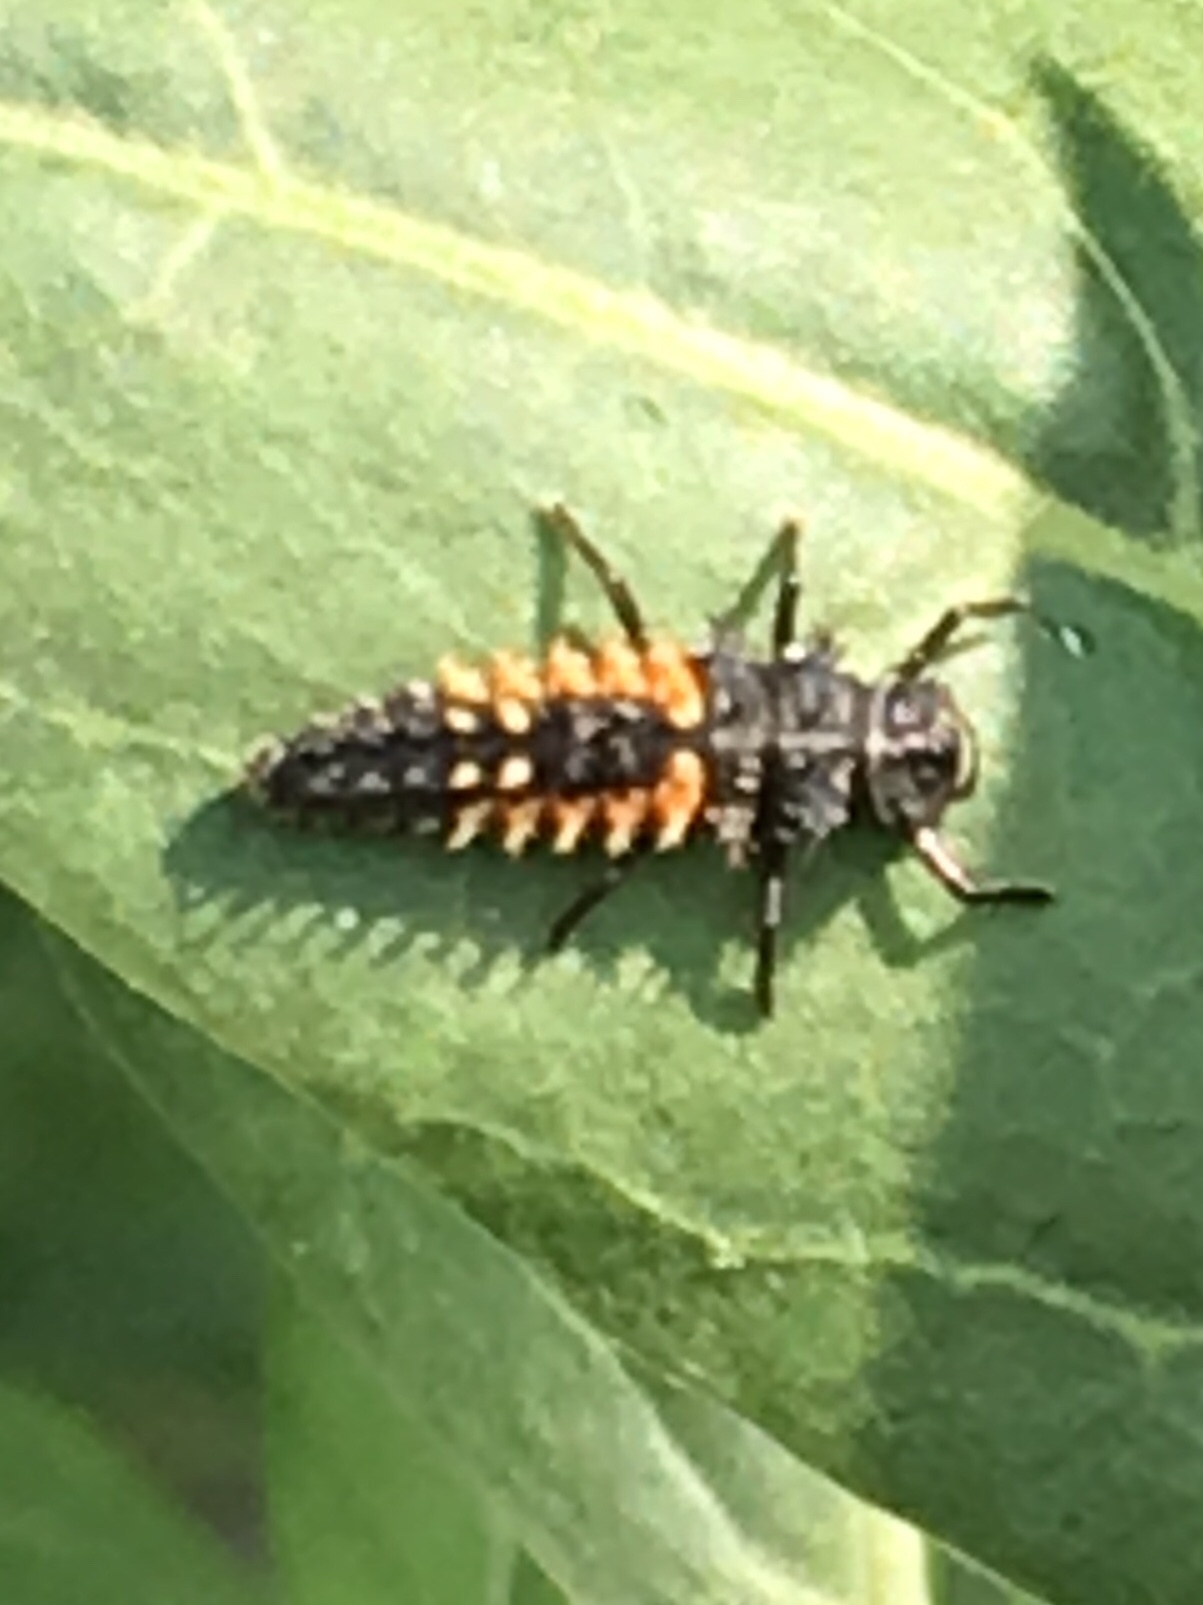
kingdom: Animalia
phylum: Arthropoda
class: Insecta
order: Coleoptera
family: Coccinellidae
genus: Harmonia
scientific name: Harmonia axyridis
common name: Harlequin ladybird
